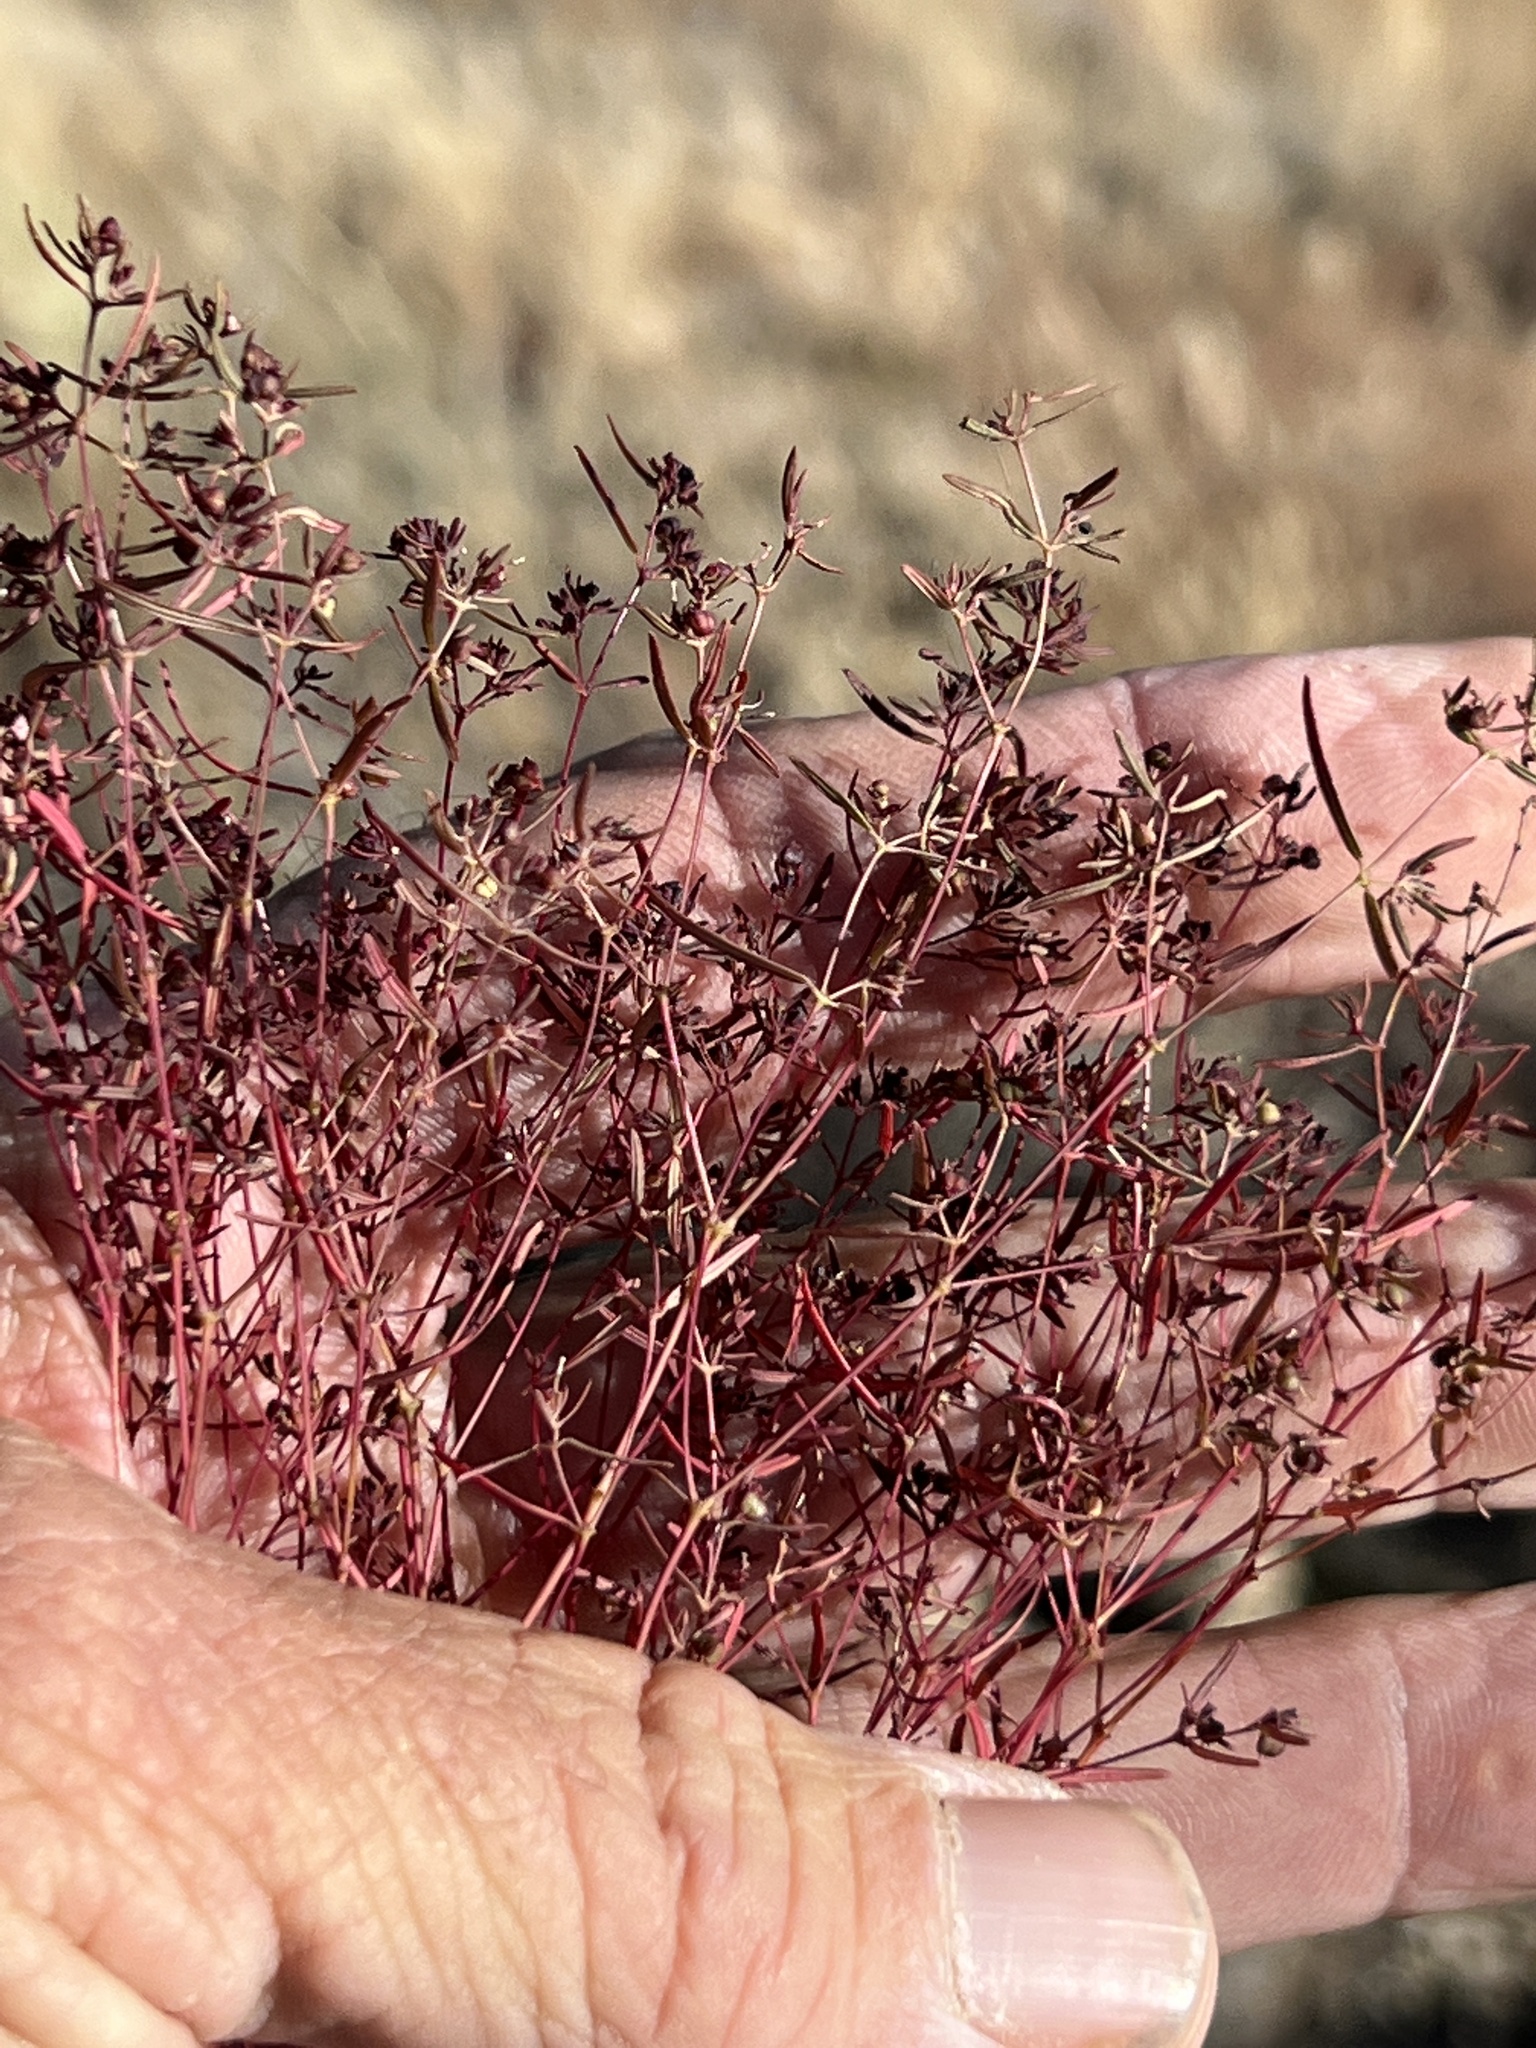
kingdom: Plantae
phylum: Tracheophyta
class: Magnoliopsida
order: Malpighiales
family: Euphorbiaceae
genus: Euphorbia
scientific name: Euphorbia revoluta
